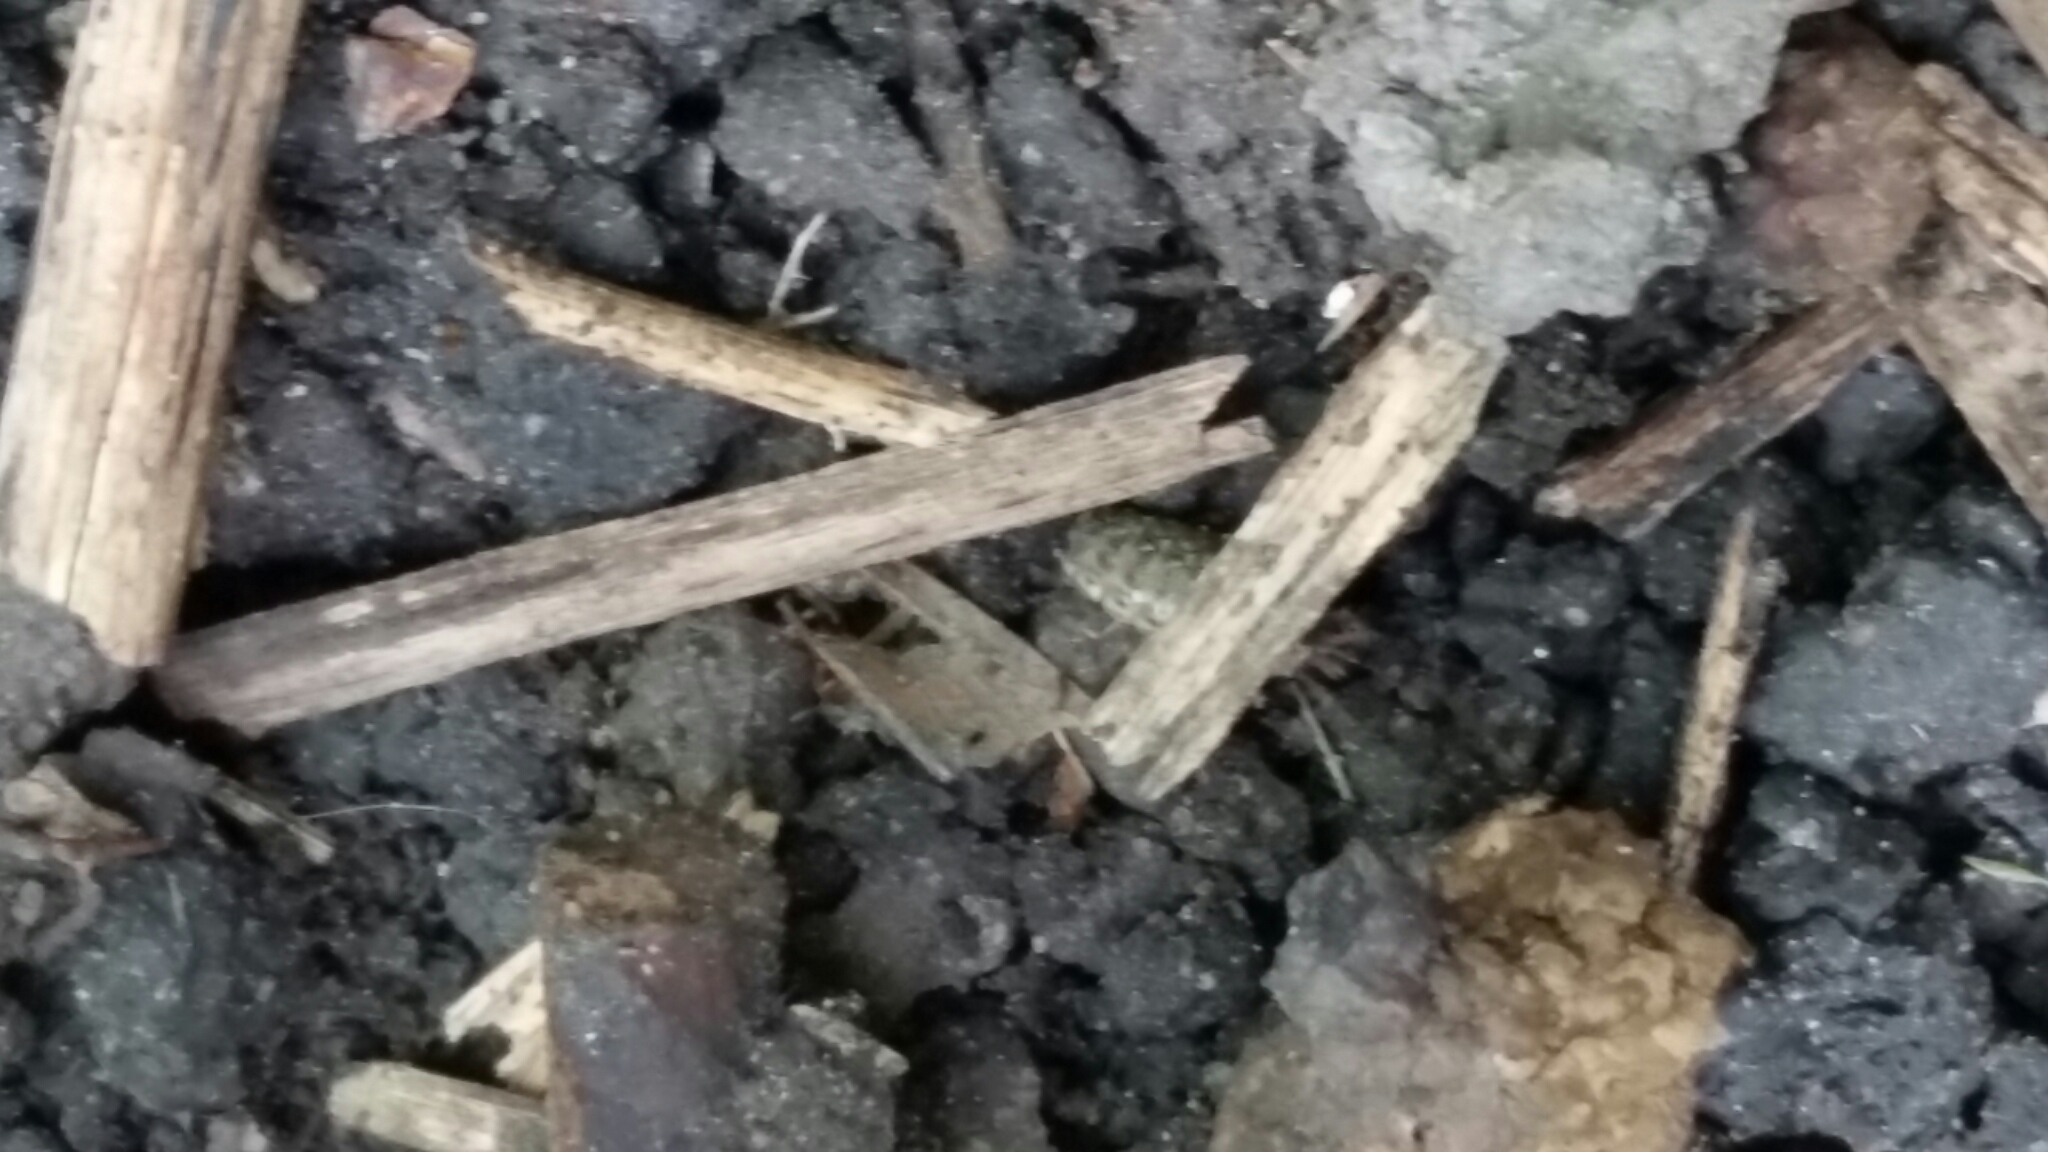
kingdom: Animalia
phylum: Arthropoda
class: Malacostraca
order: Isopoda
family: Philosciidae
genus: Philoscia
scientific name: Philoscia muscorum
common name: Common striped woodlouse
